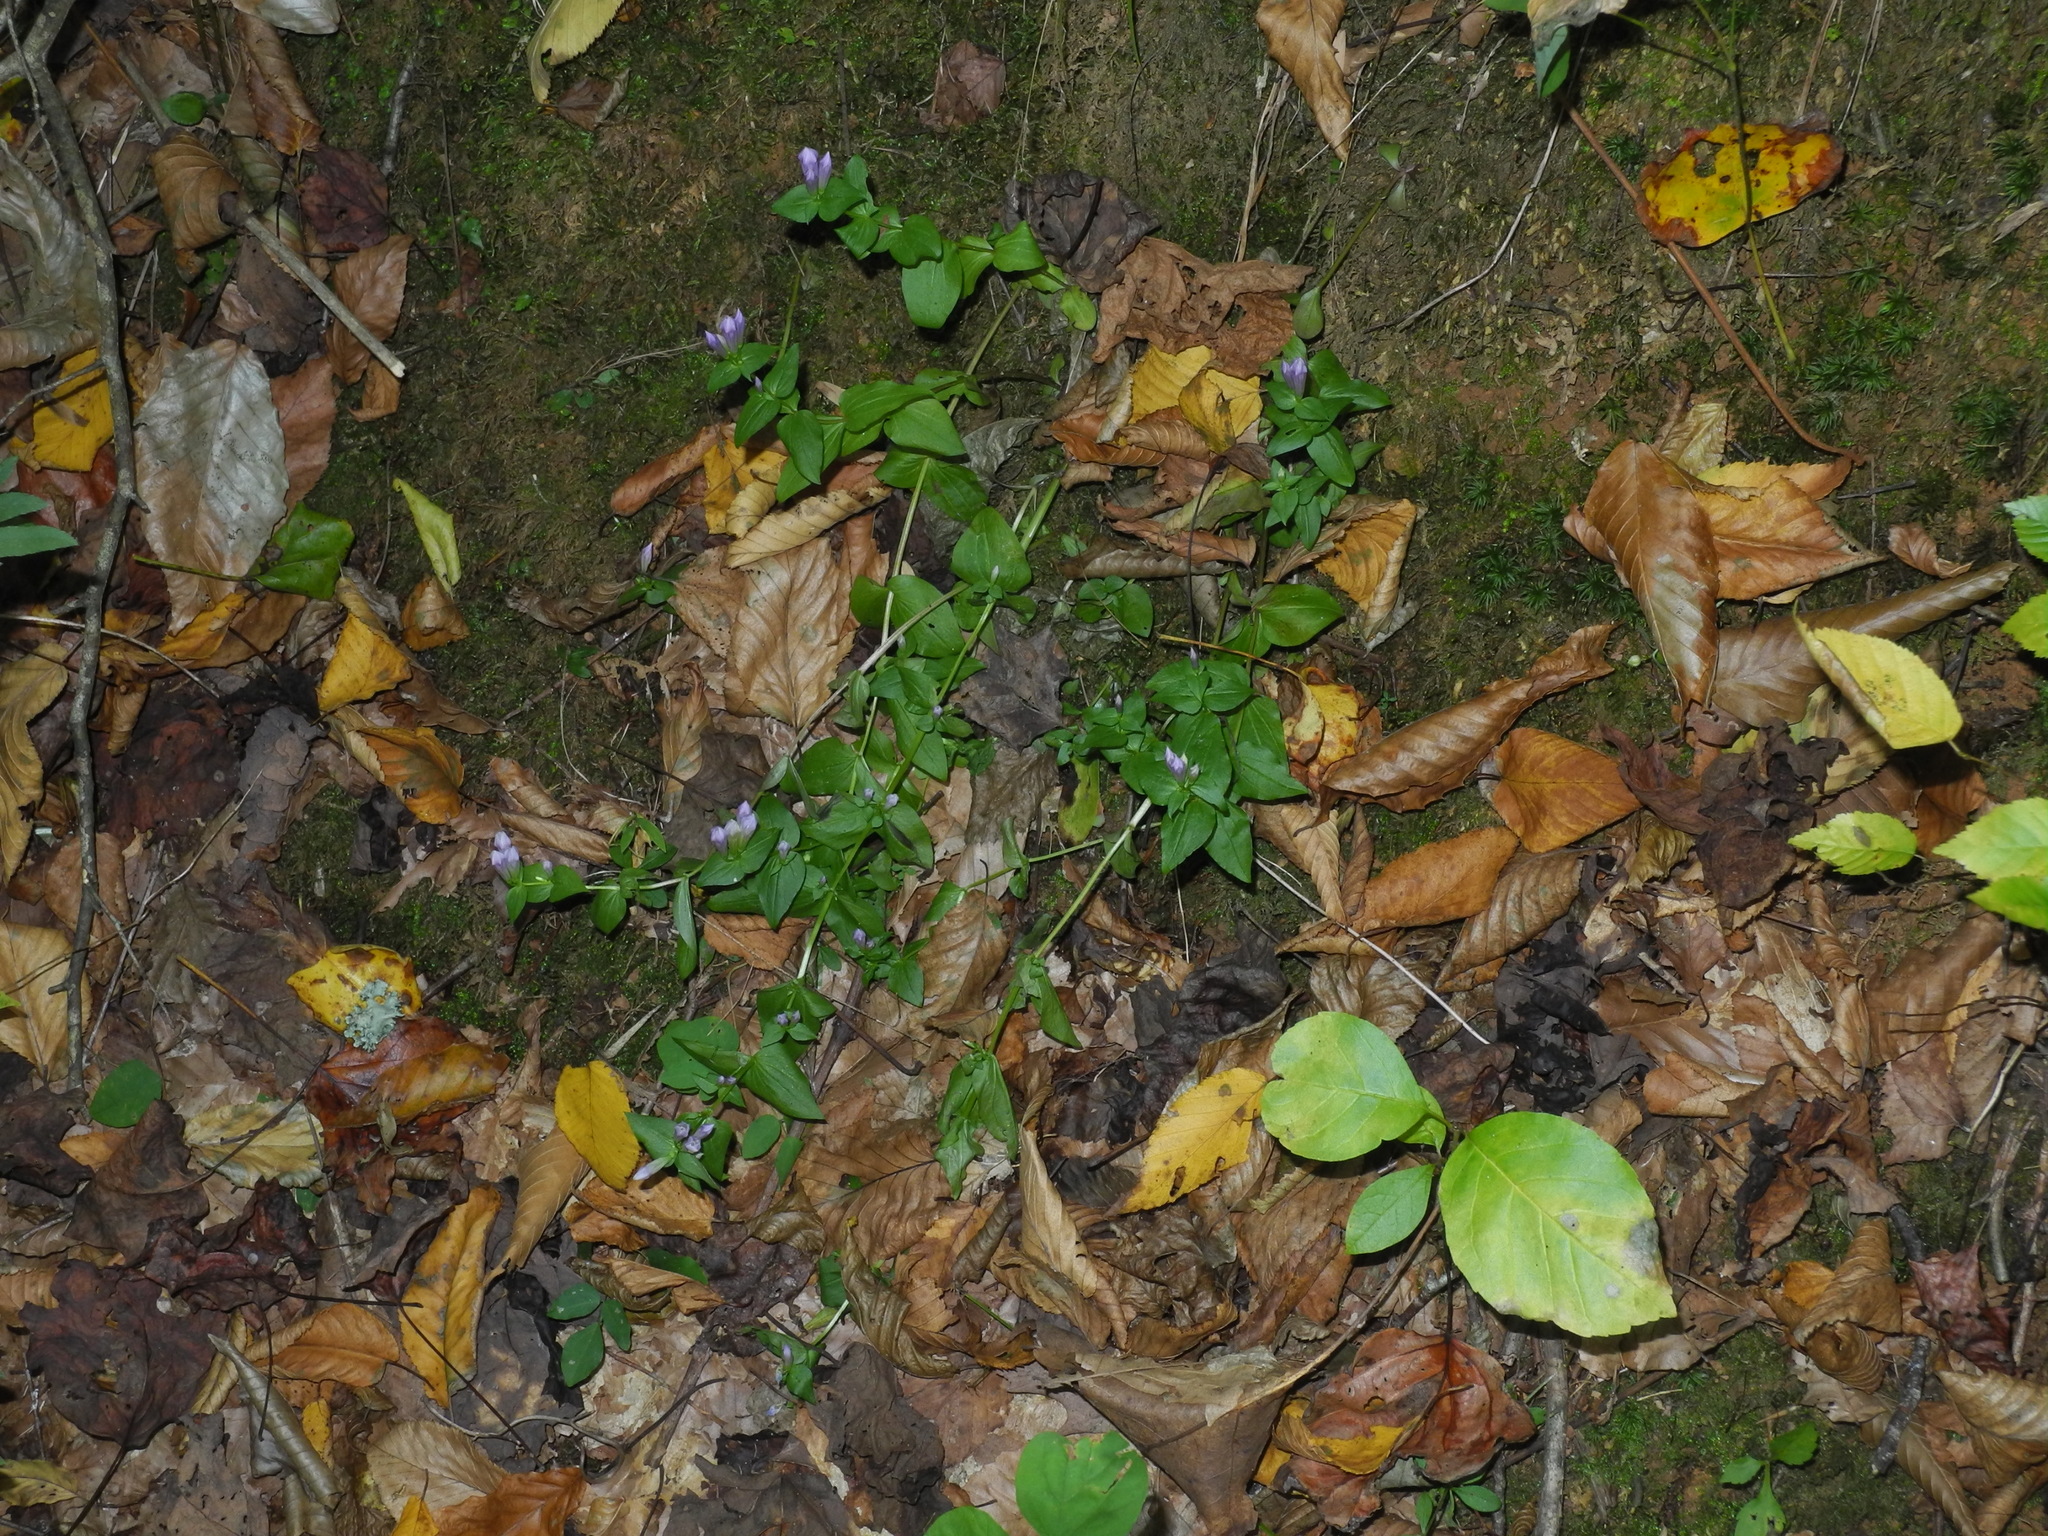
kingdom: Plantae
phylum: Tracheophyta
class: Magnoliopsida
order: Gentianales
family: Gentianaceae
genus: Gentianella
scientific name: Gentianella quinquefolia
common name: Agueweed
